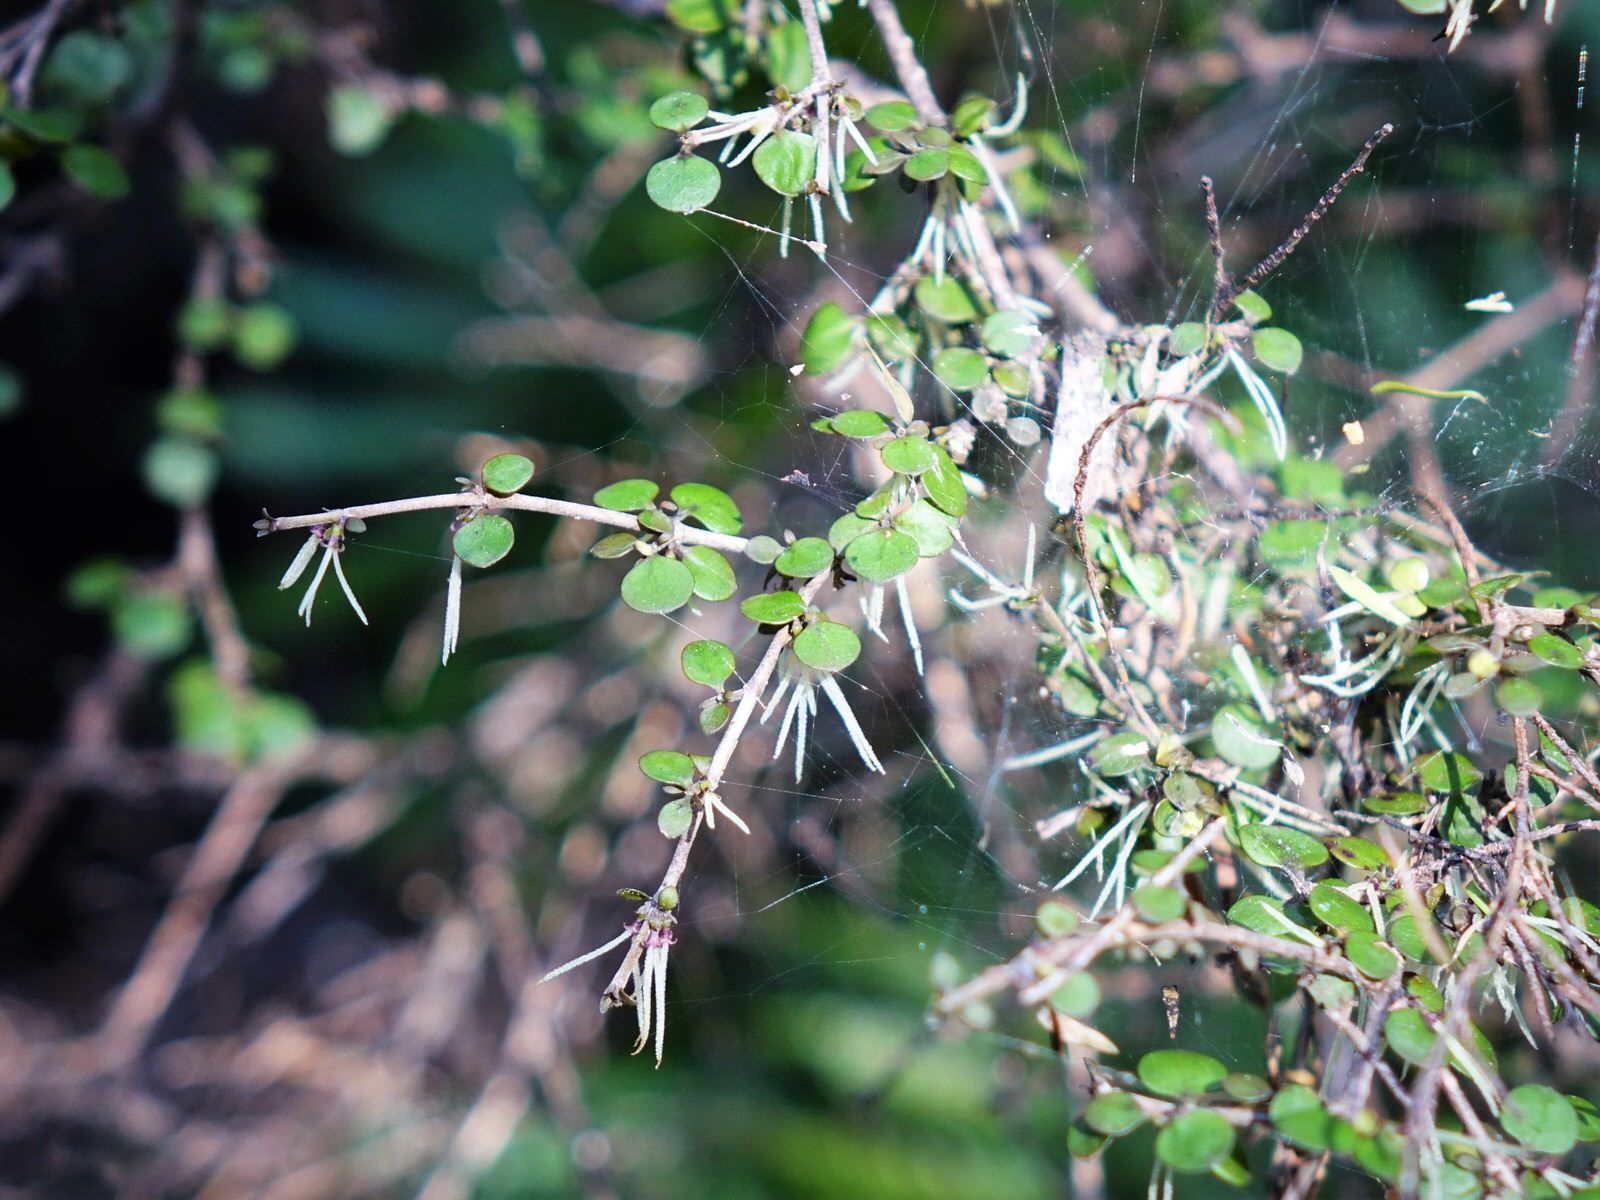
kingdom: Plantae
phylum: Tracheophyta
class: Magnoliopsida
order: Gentianales
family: Rubiaceae
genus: Coprosma
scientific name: Coprosma rhamnoides
